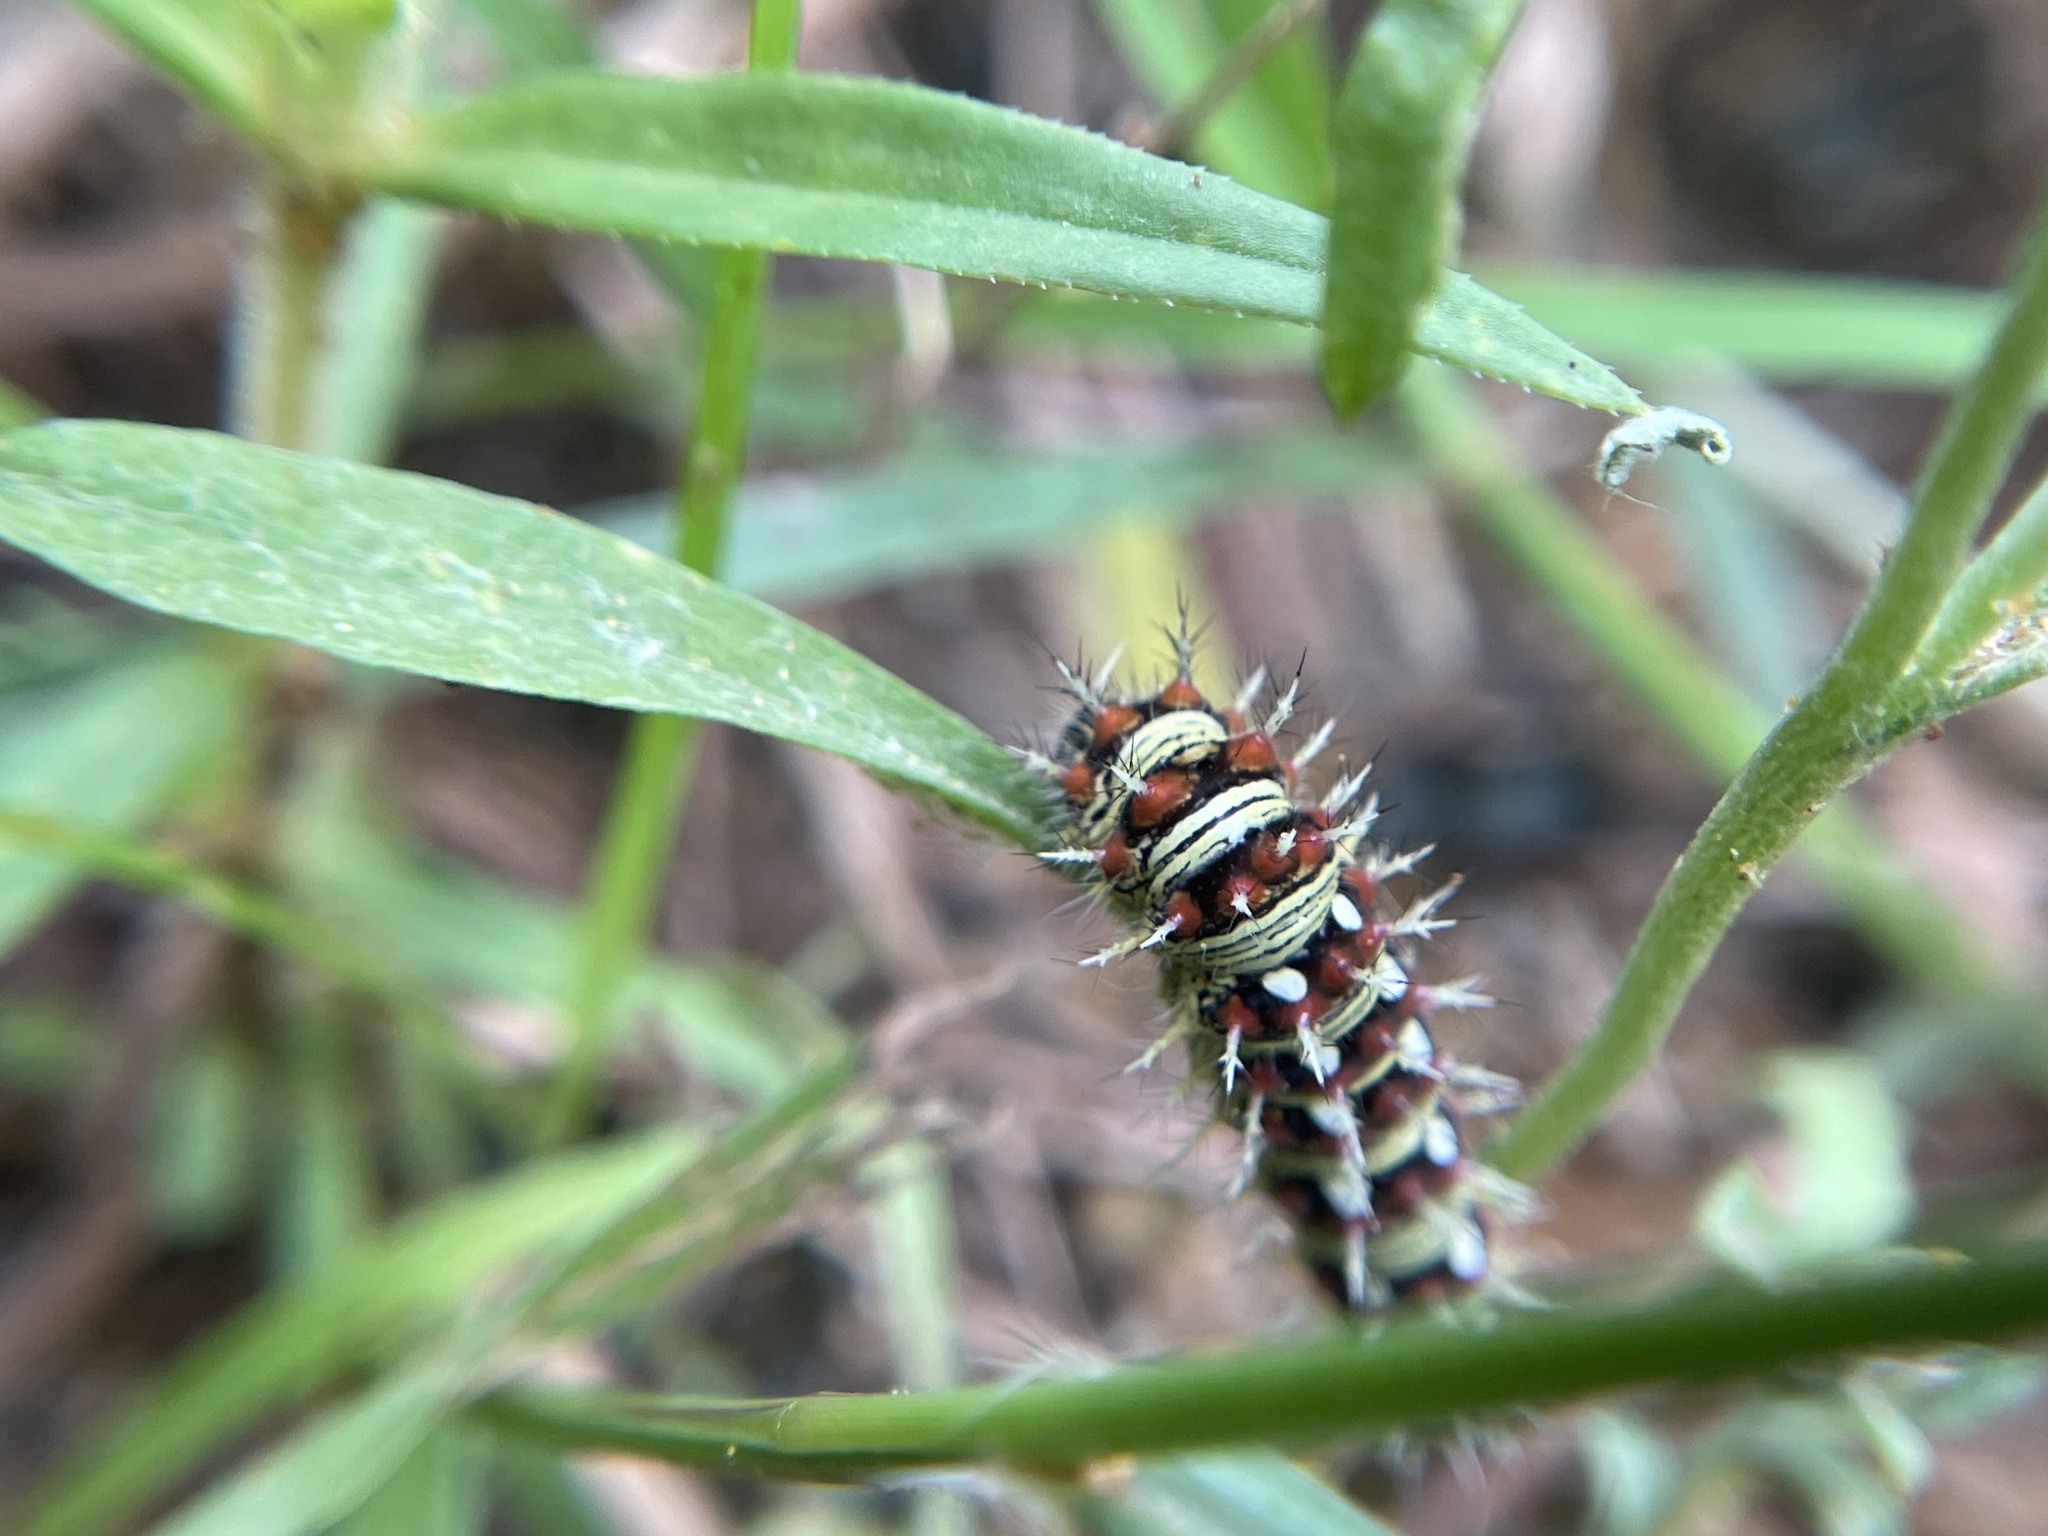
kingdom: Animalia
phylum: Arthropoda
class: Insecta
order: Lepidoptera
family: Nymphalidae
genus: Vanessa
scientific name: Vanessa virginiensis
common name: American lady
